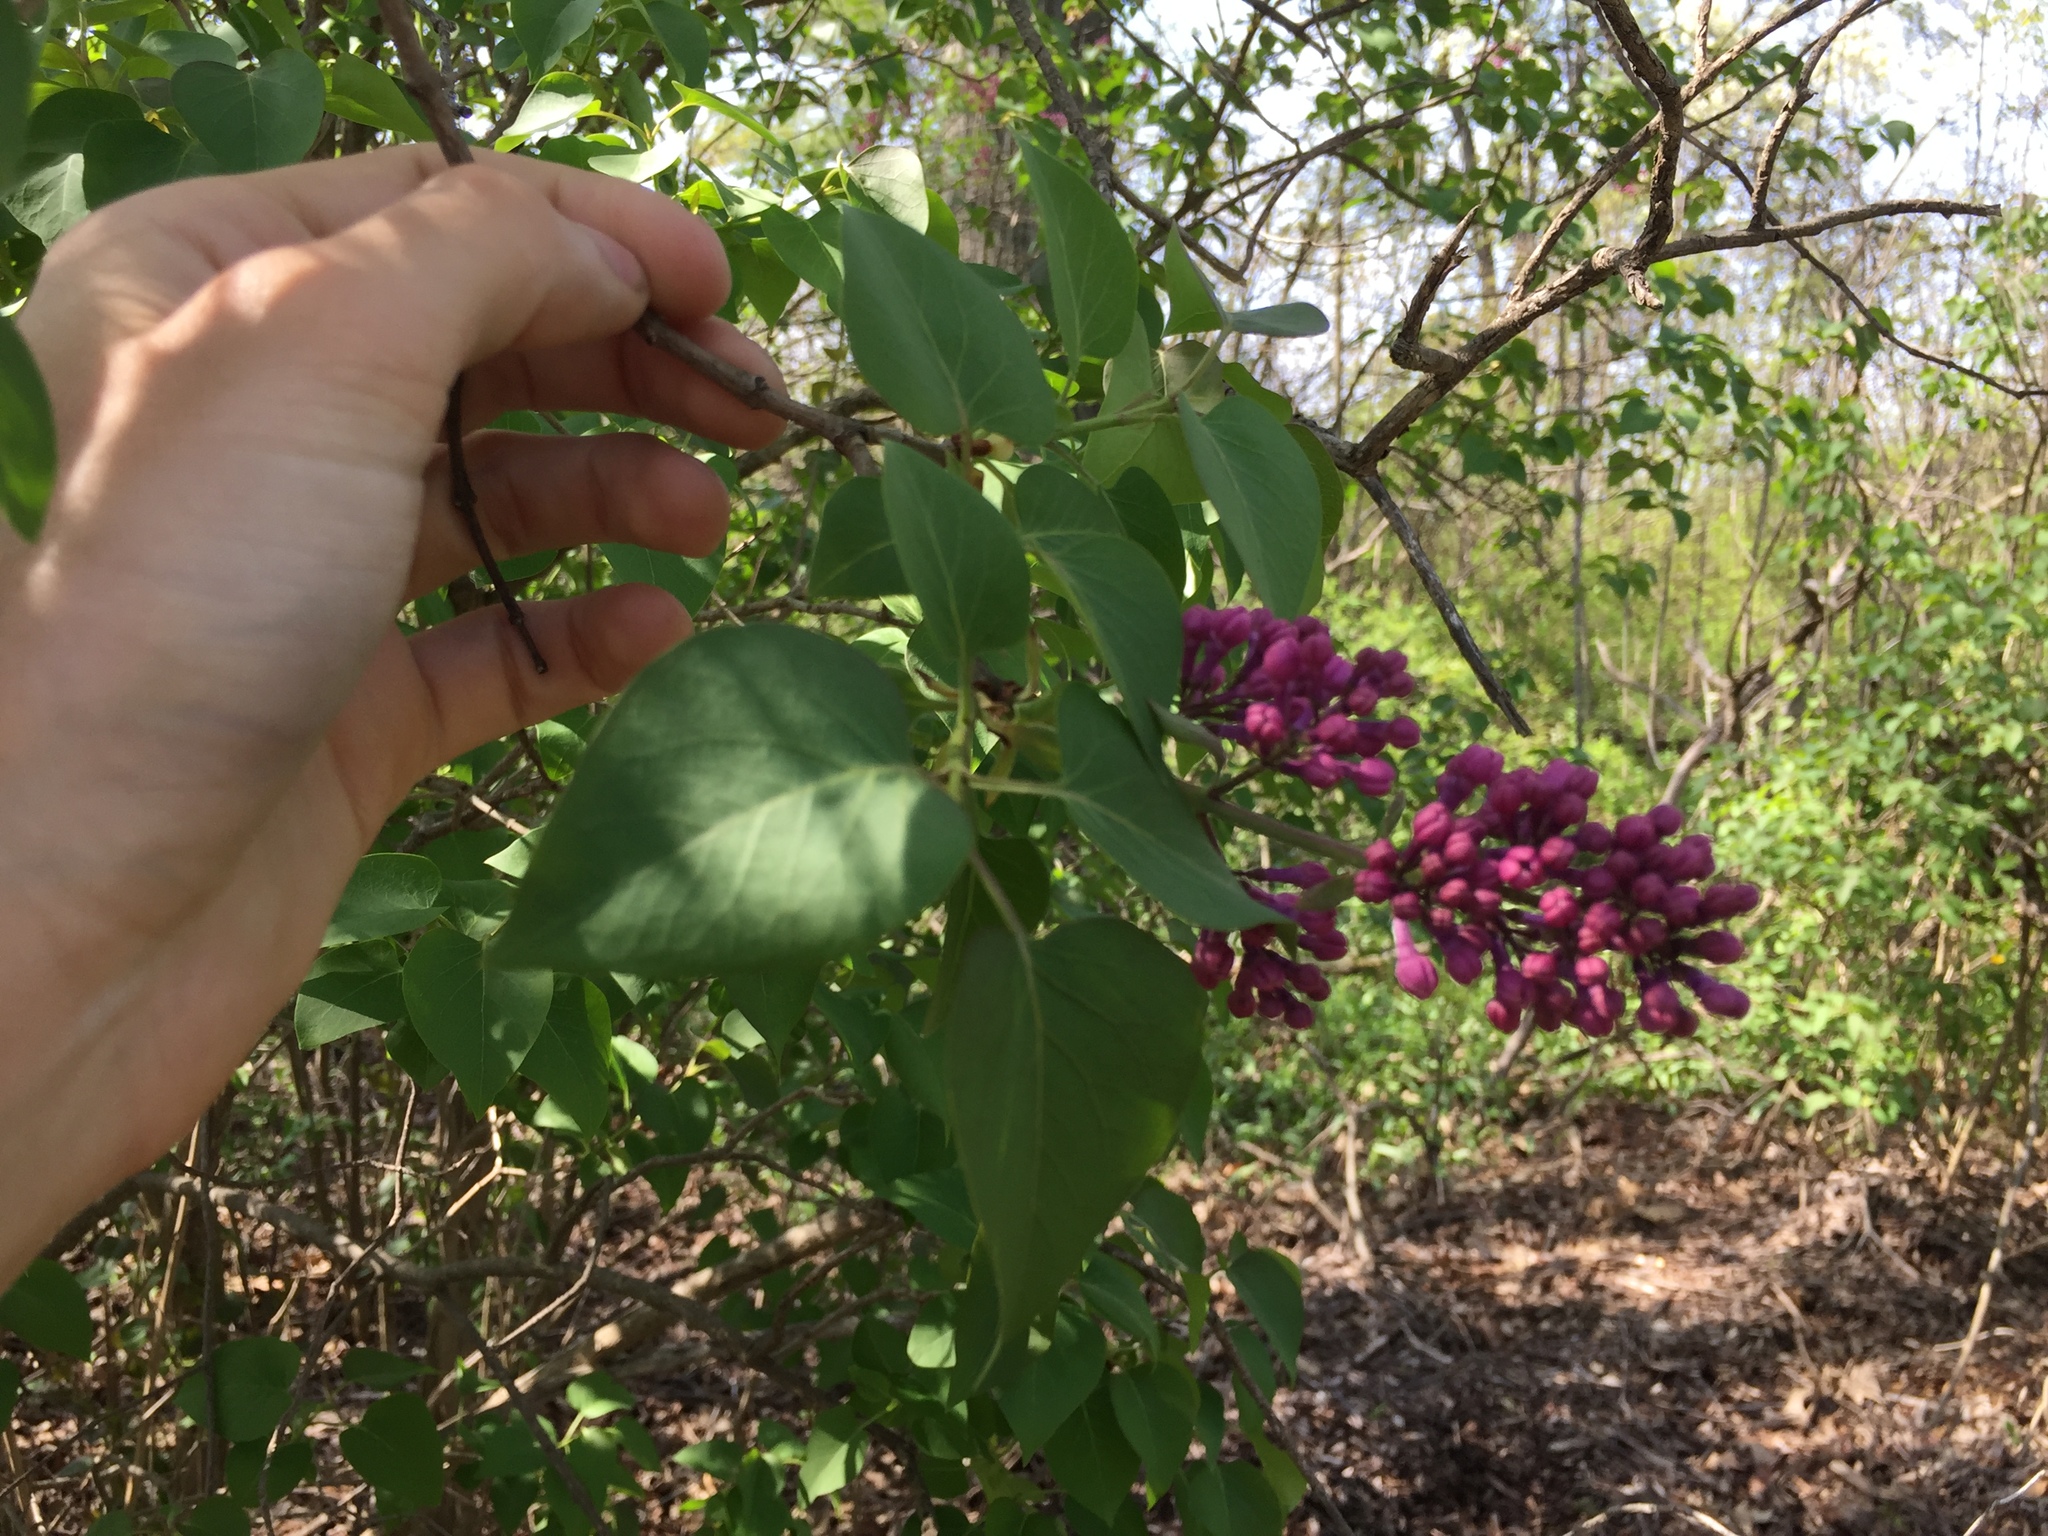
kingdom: Plantae
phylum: Tracheophyta
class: Magnoliopsida
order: Lamiales
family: Oleaceae
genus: Syringa
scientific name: Syringa vulgaris
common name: Common lilac
